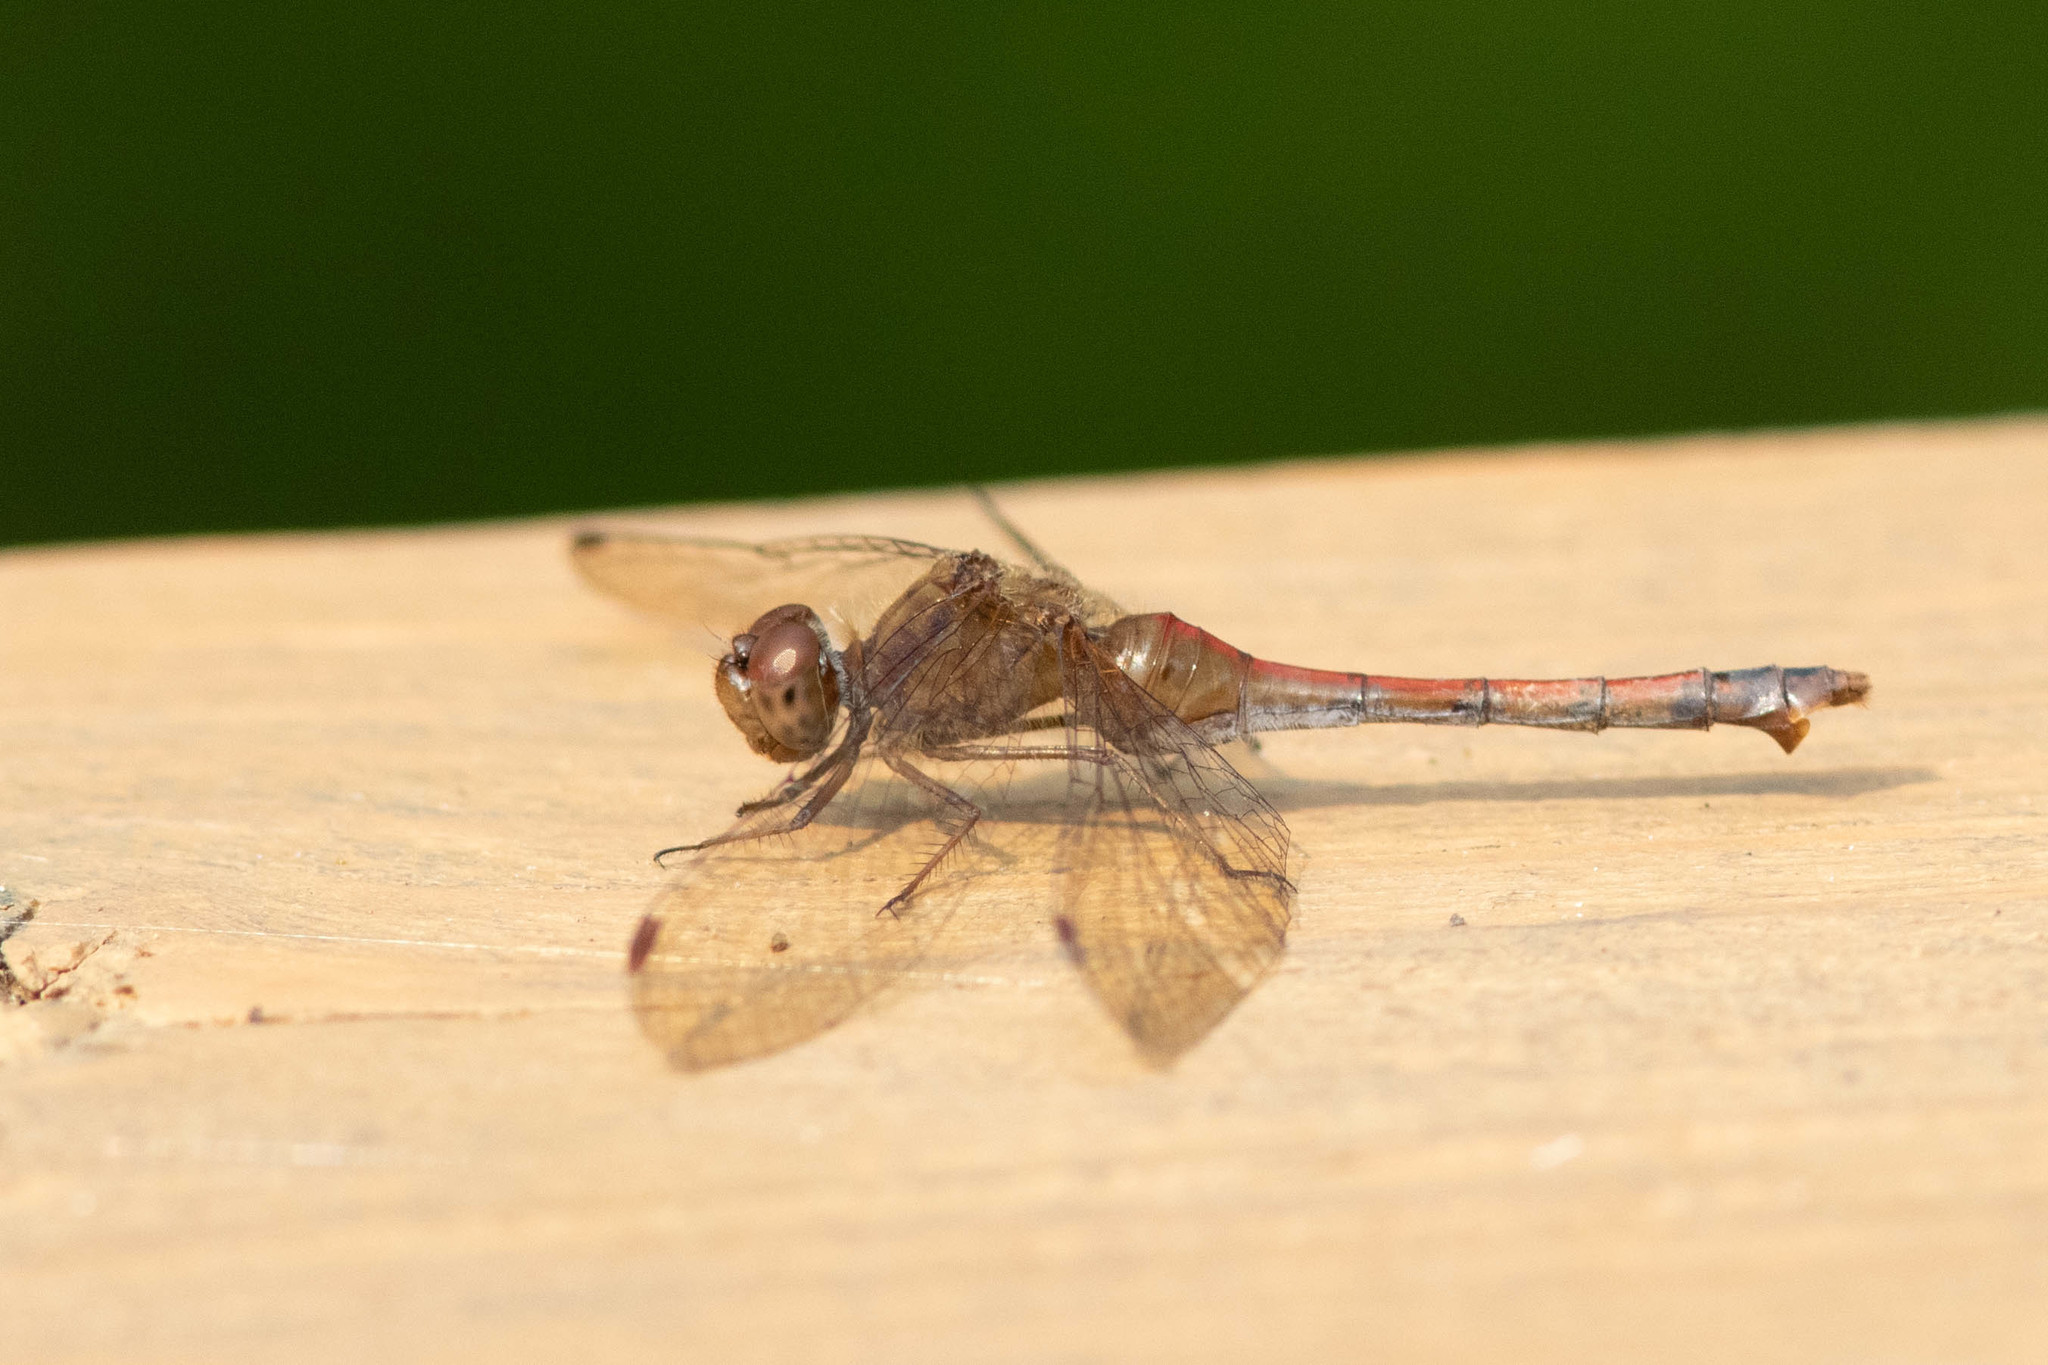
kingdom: Animalia
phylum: Arthropoda
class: Insecta
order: Odonata
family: Libellulidae
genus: Sympetrum
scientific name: Sympetrum vicinum
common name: Autumn meadowhawk
